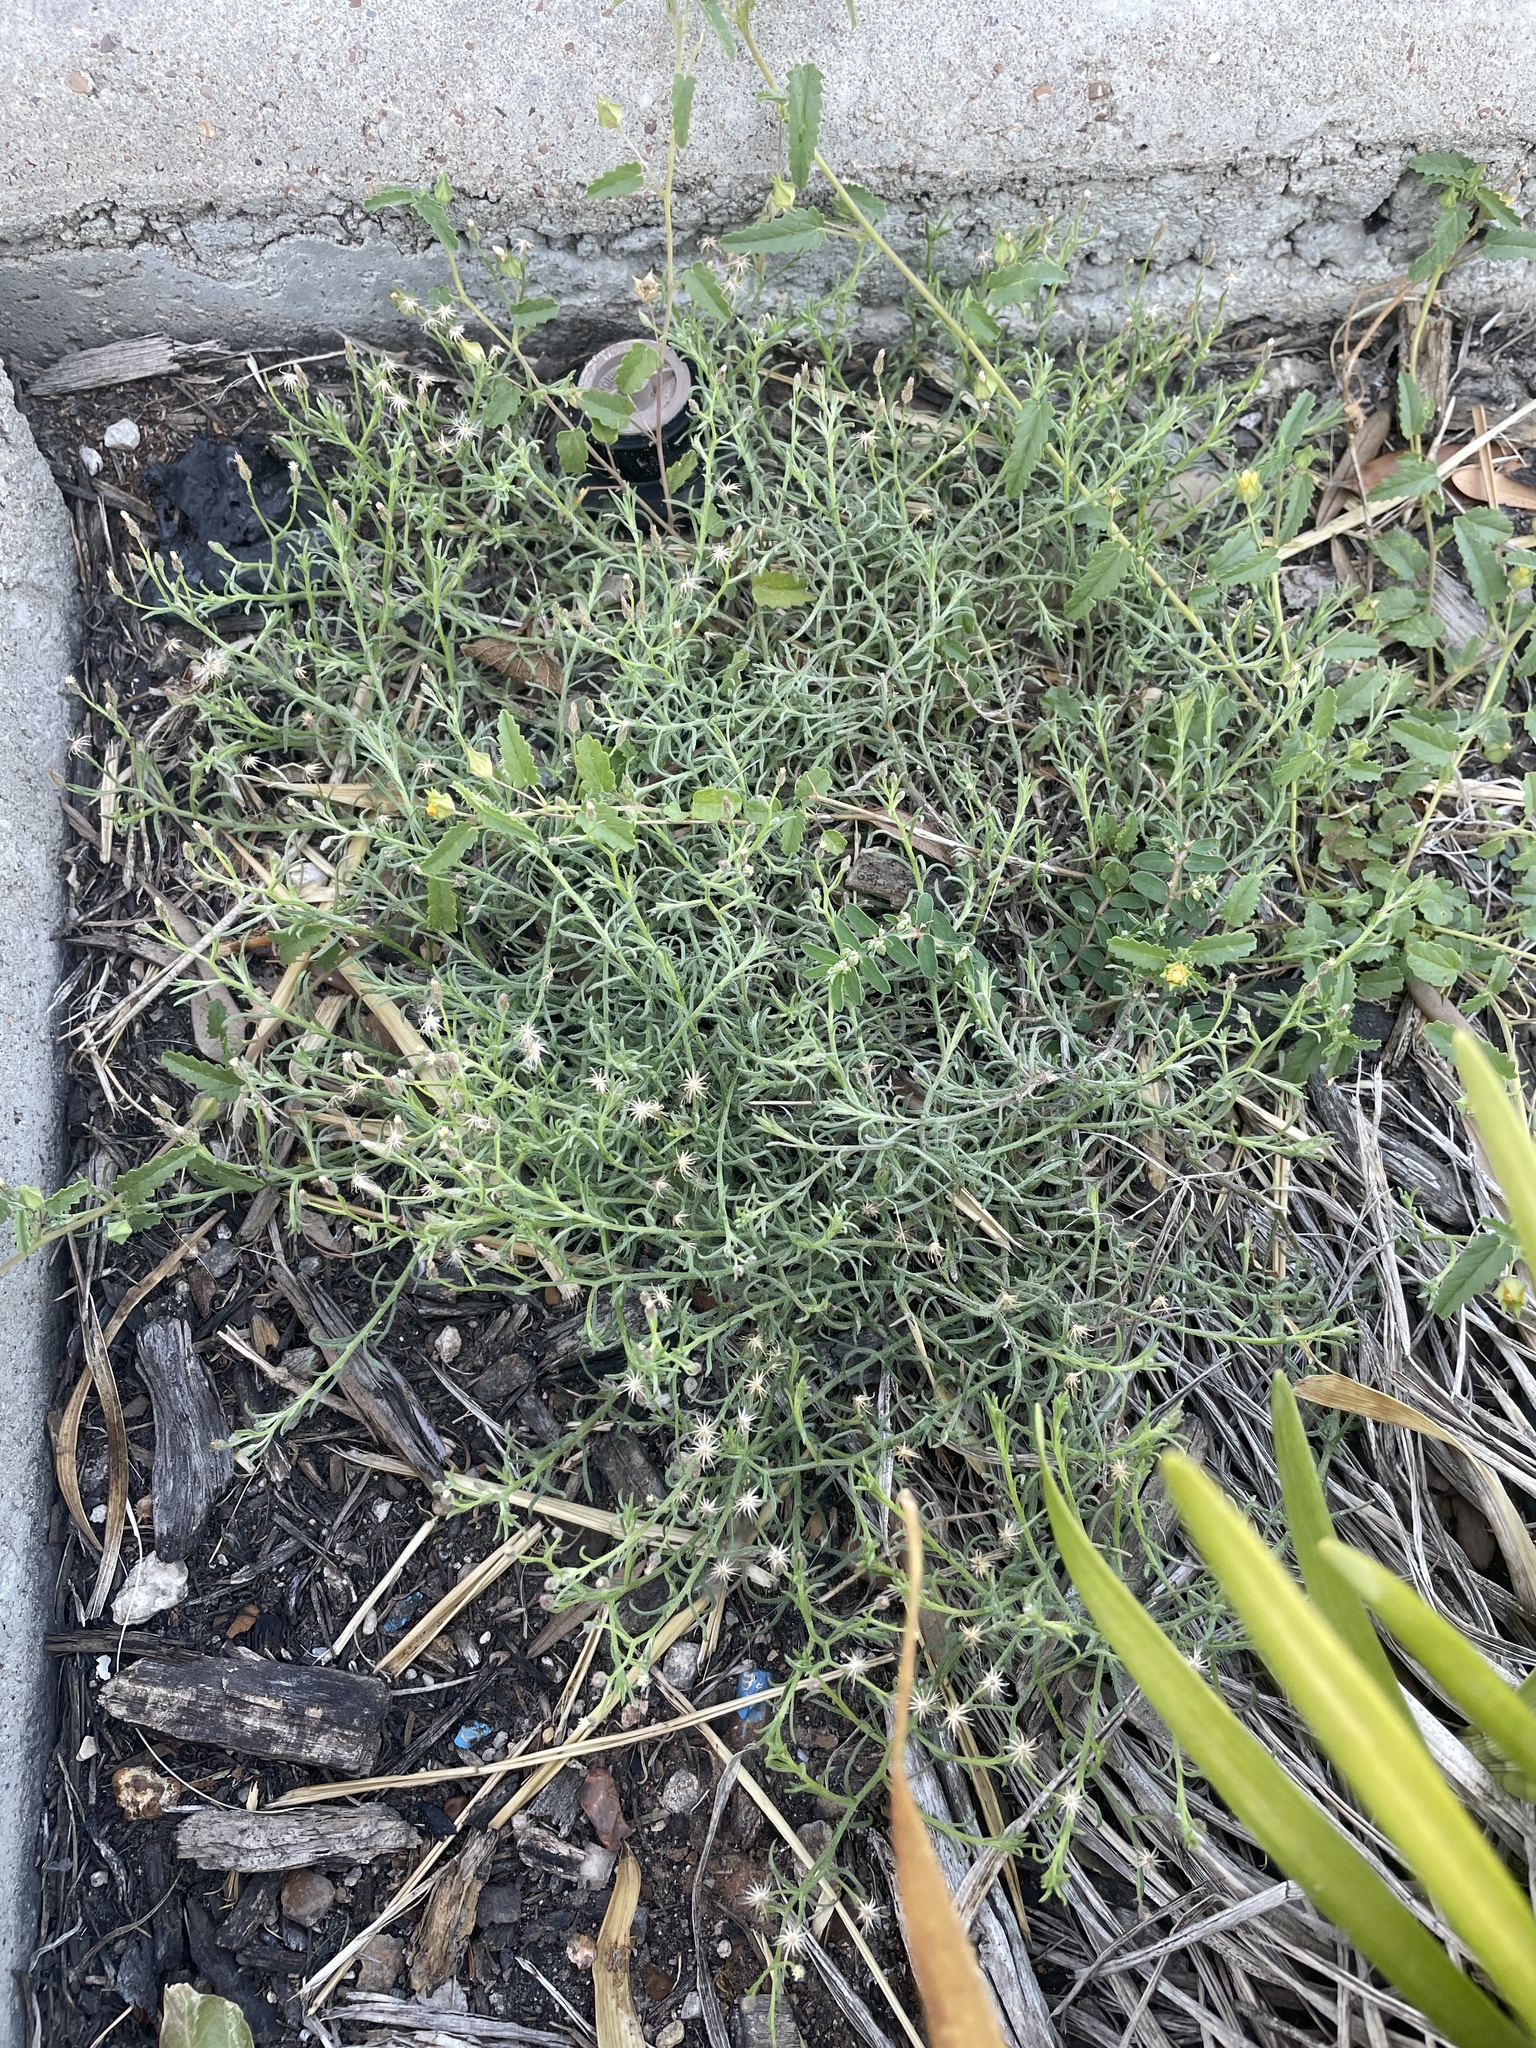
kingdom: Plantae
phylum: Tracheophyta
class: Magnoliopsida
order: Asterales
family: Asteraceae
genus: Erigeron
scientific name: Erigeron divaricatus
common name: Dwarf conyza
